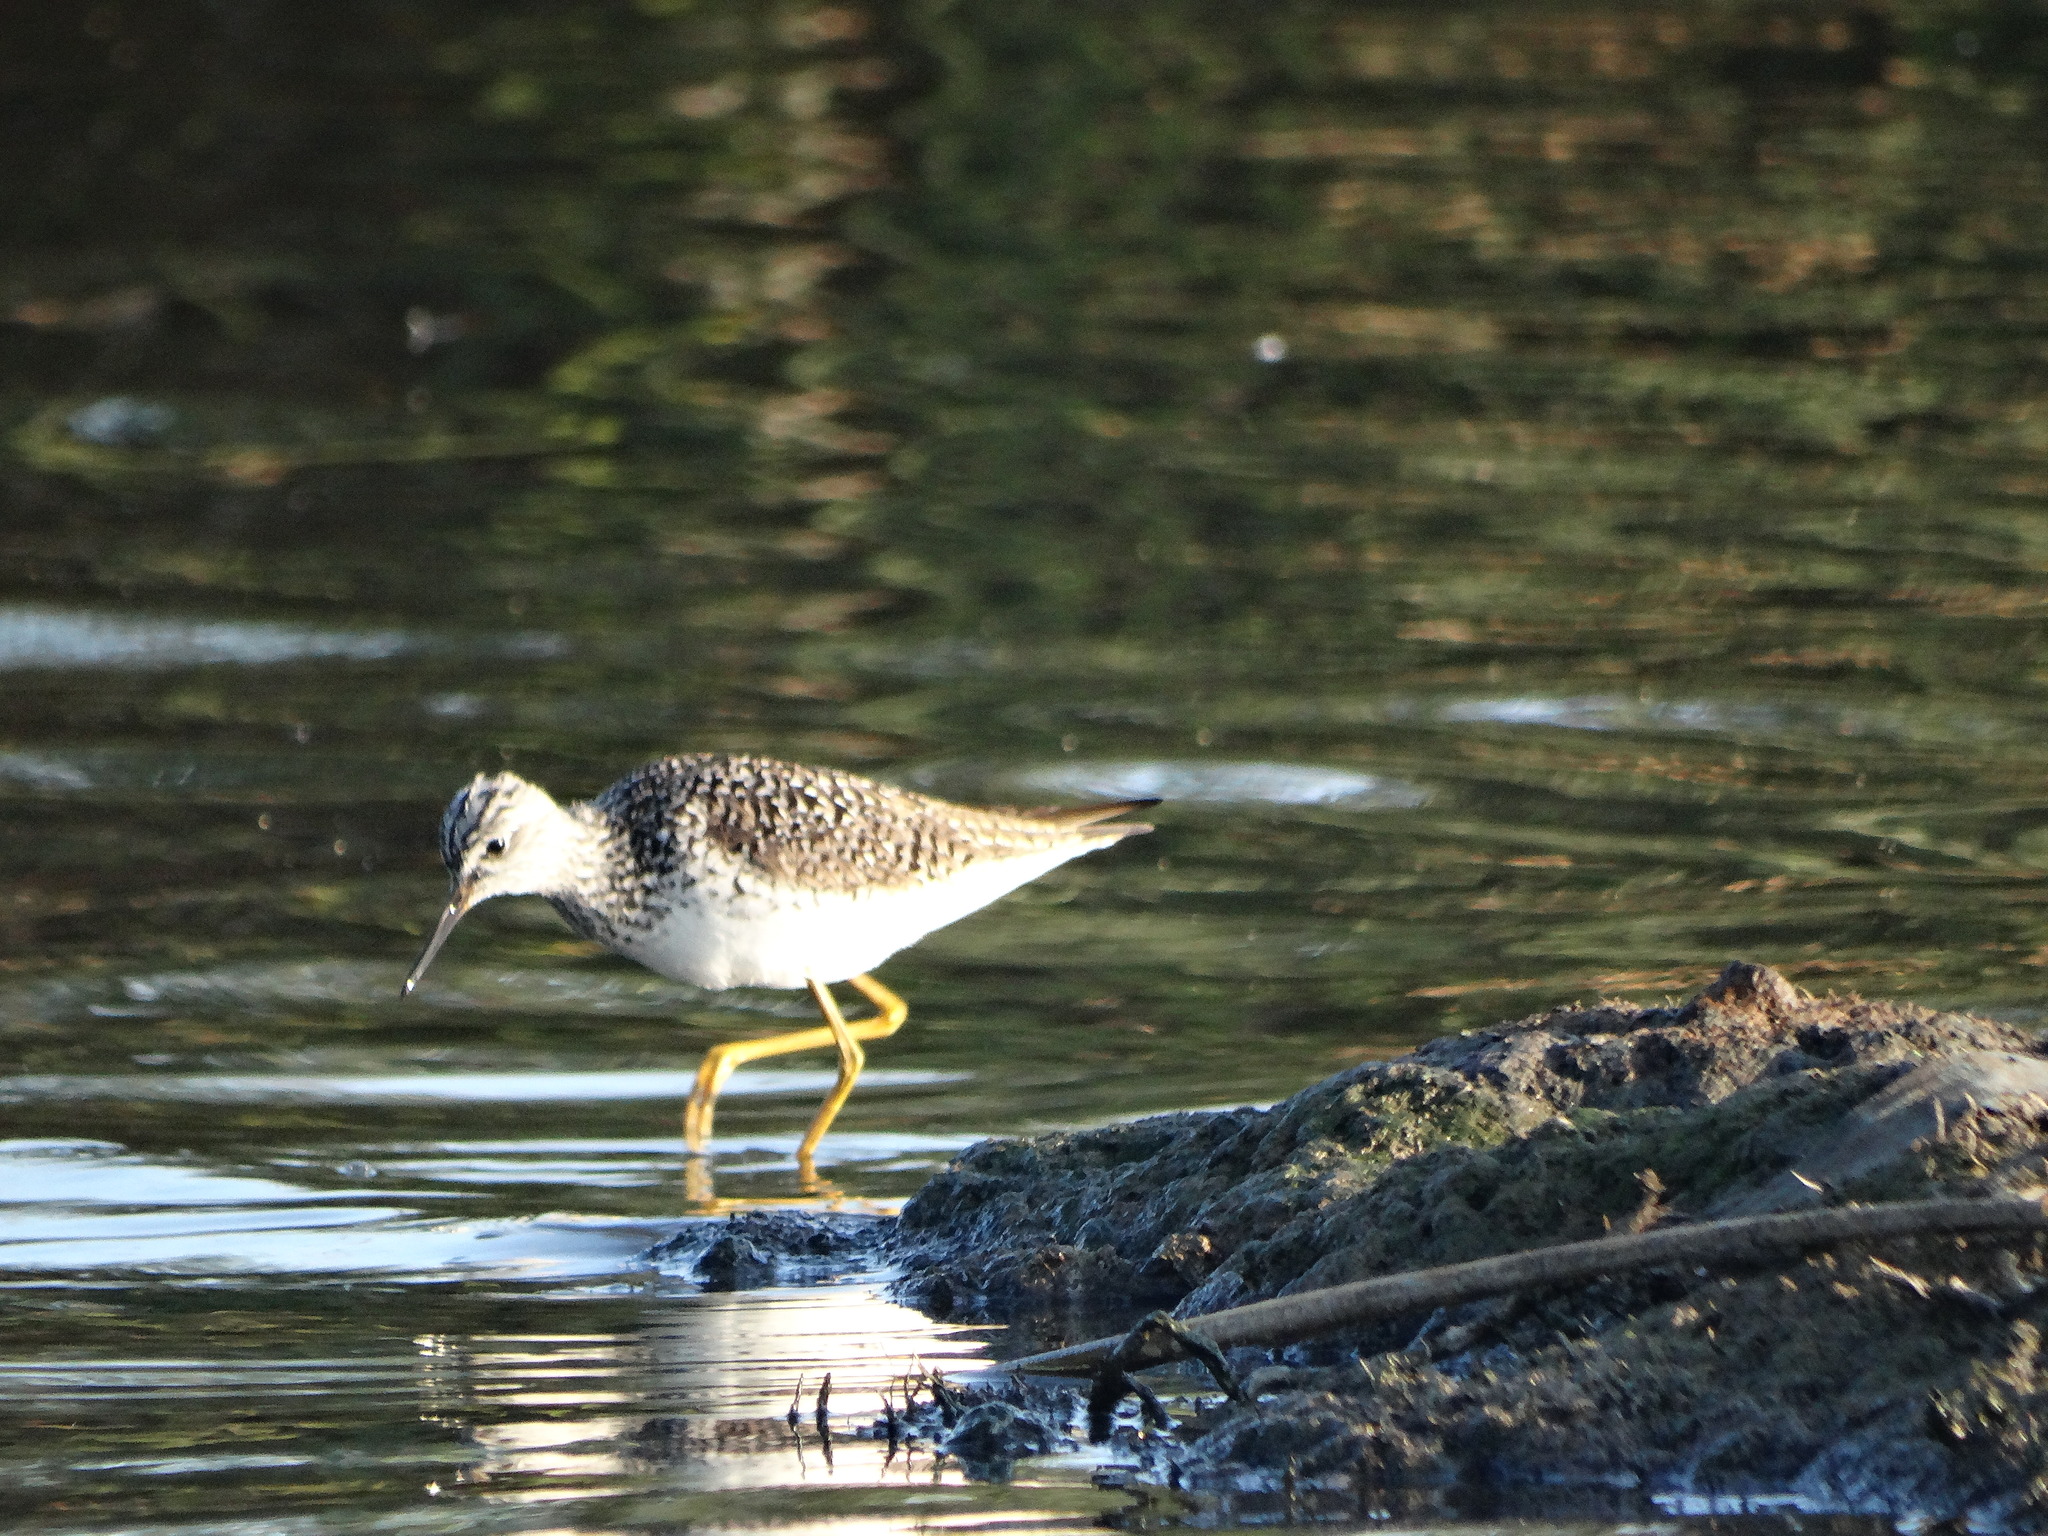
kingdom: Animalia
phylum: Chordata
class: Aves
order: Charadriiformes
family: Scolopacidae
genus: Tringa
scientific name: Tringa flavipes
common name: Lesser yellowlegs
